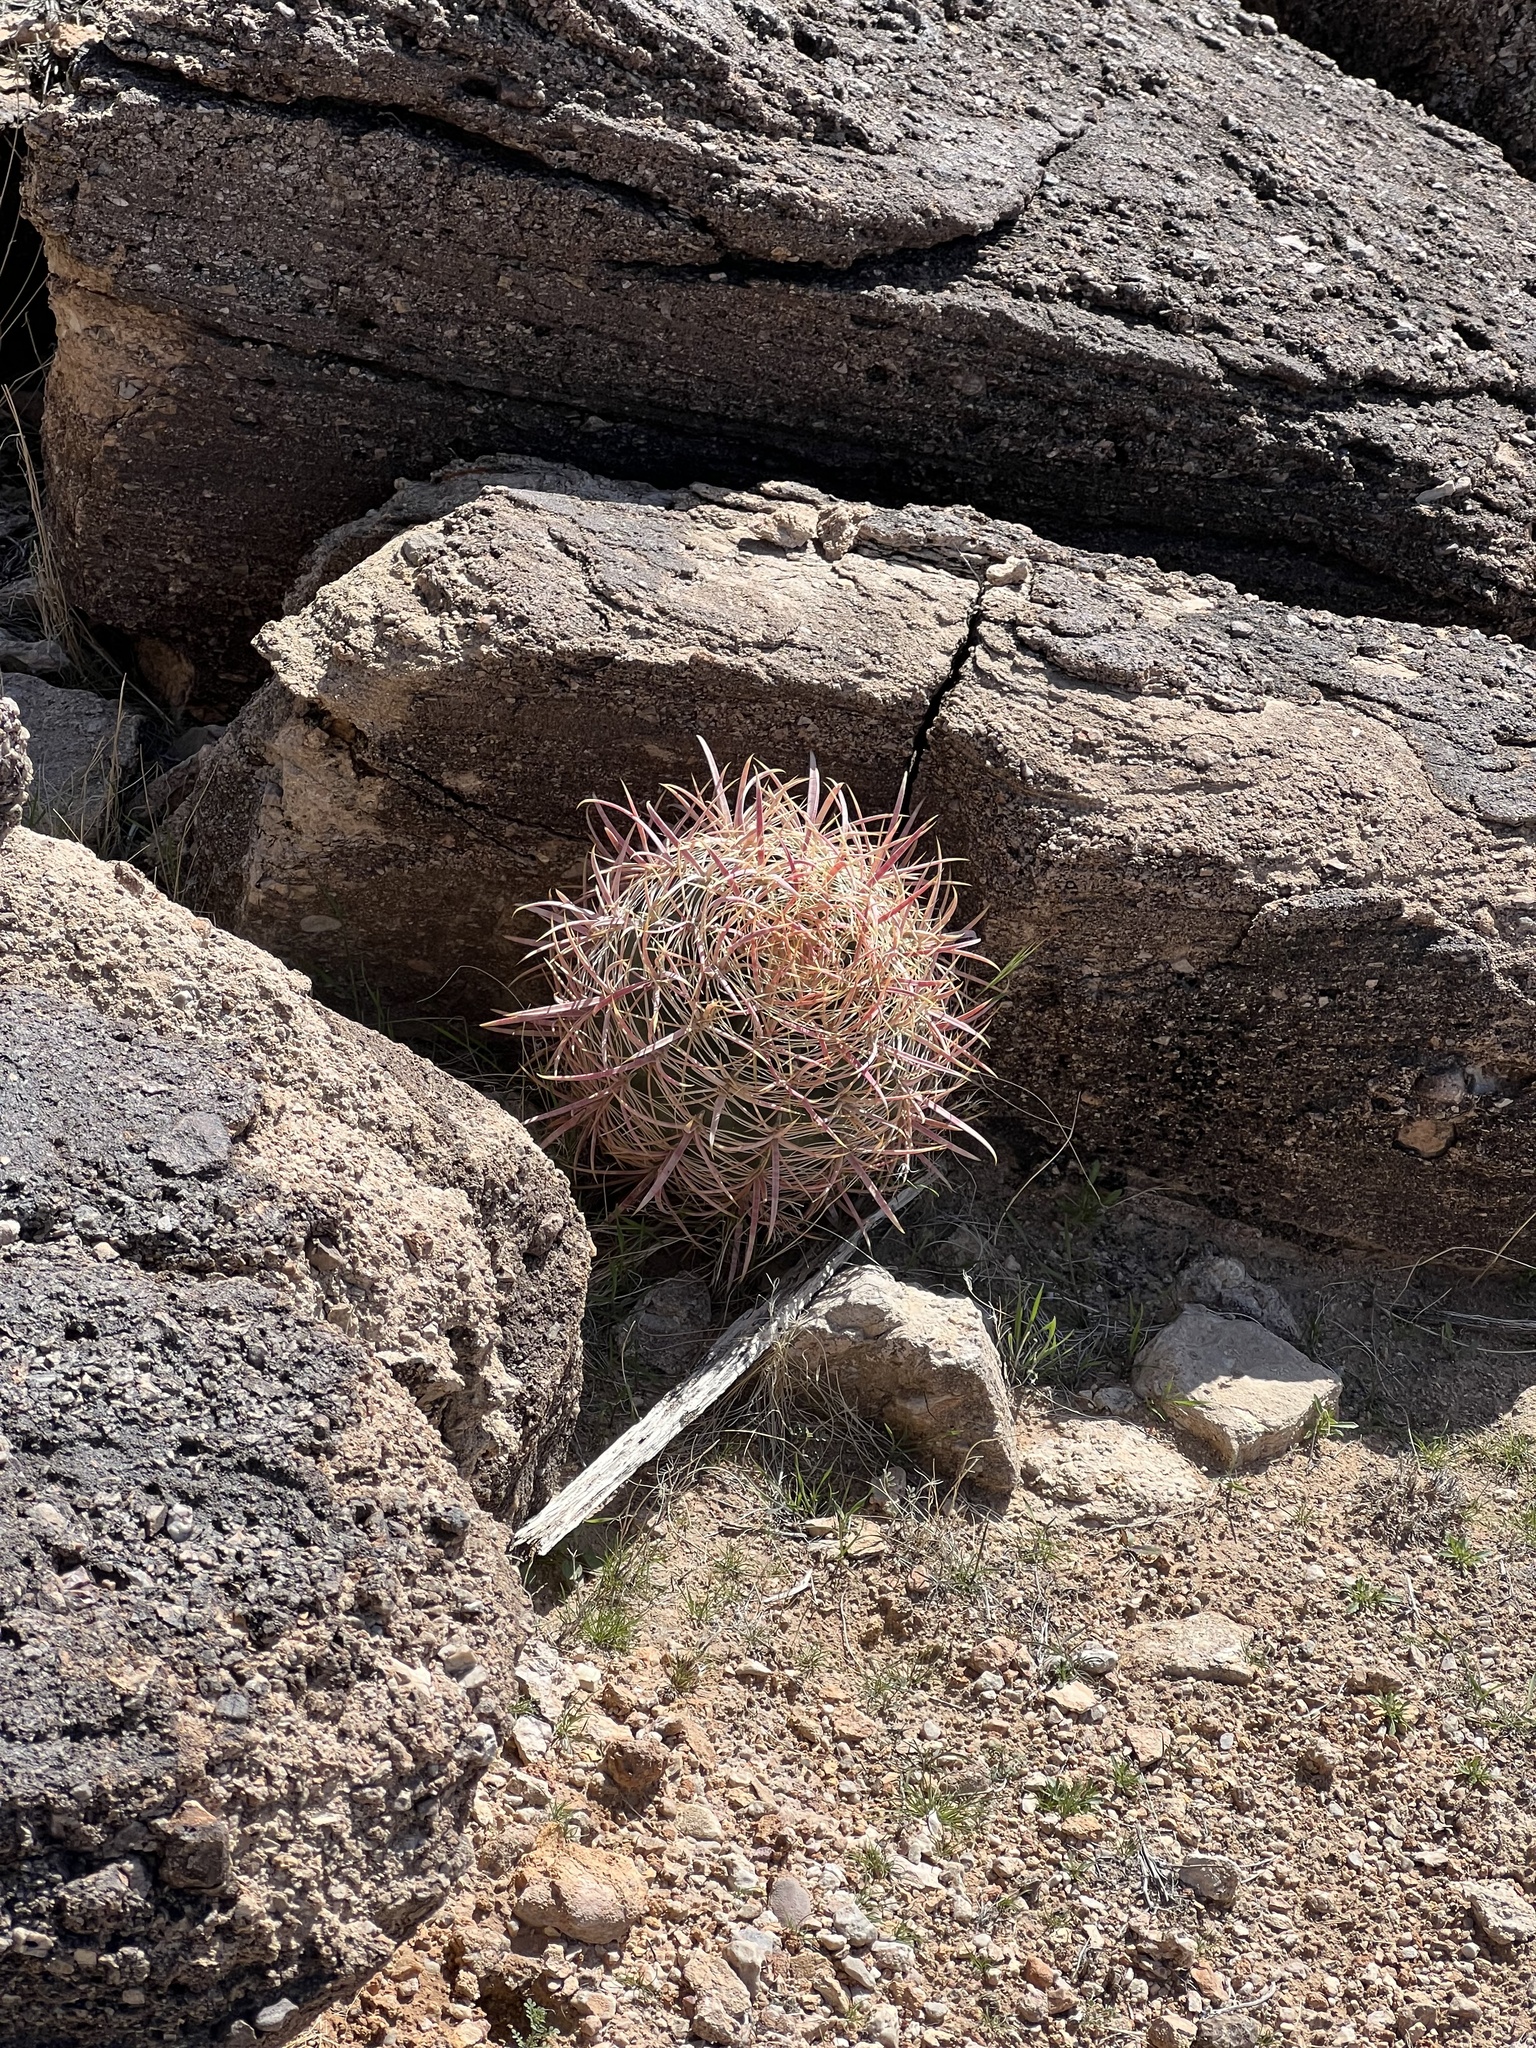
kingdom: Plantae
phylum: Tracheophyta
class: Magnoliopsida
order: Caryophyllales
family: Cactaceae
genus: Ferocactus
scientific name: Ferocactus cylindraceus
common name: California barrel cactus
